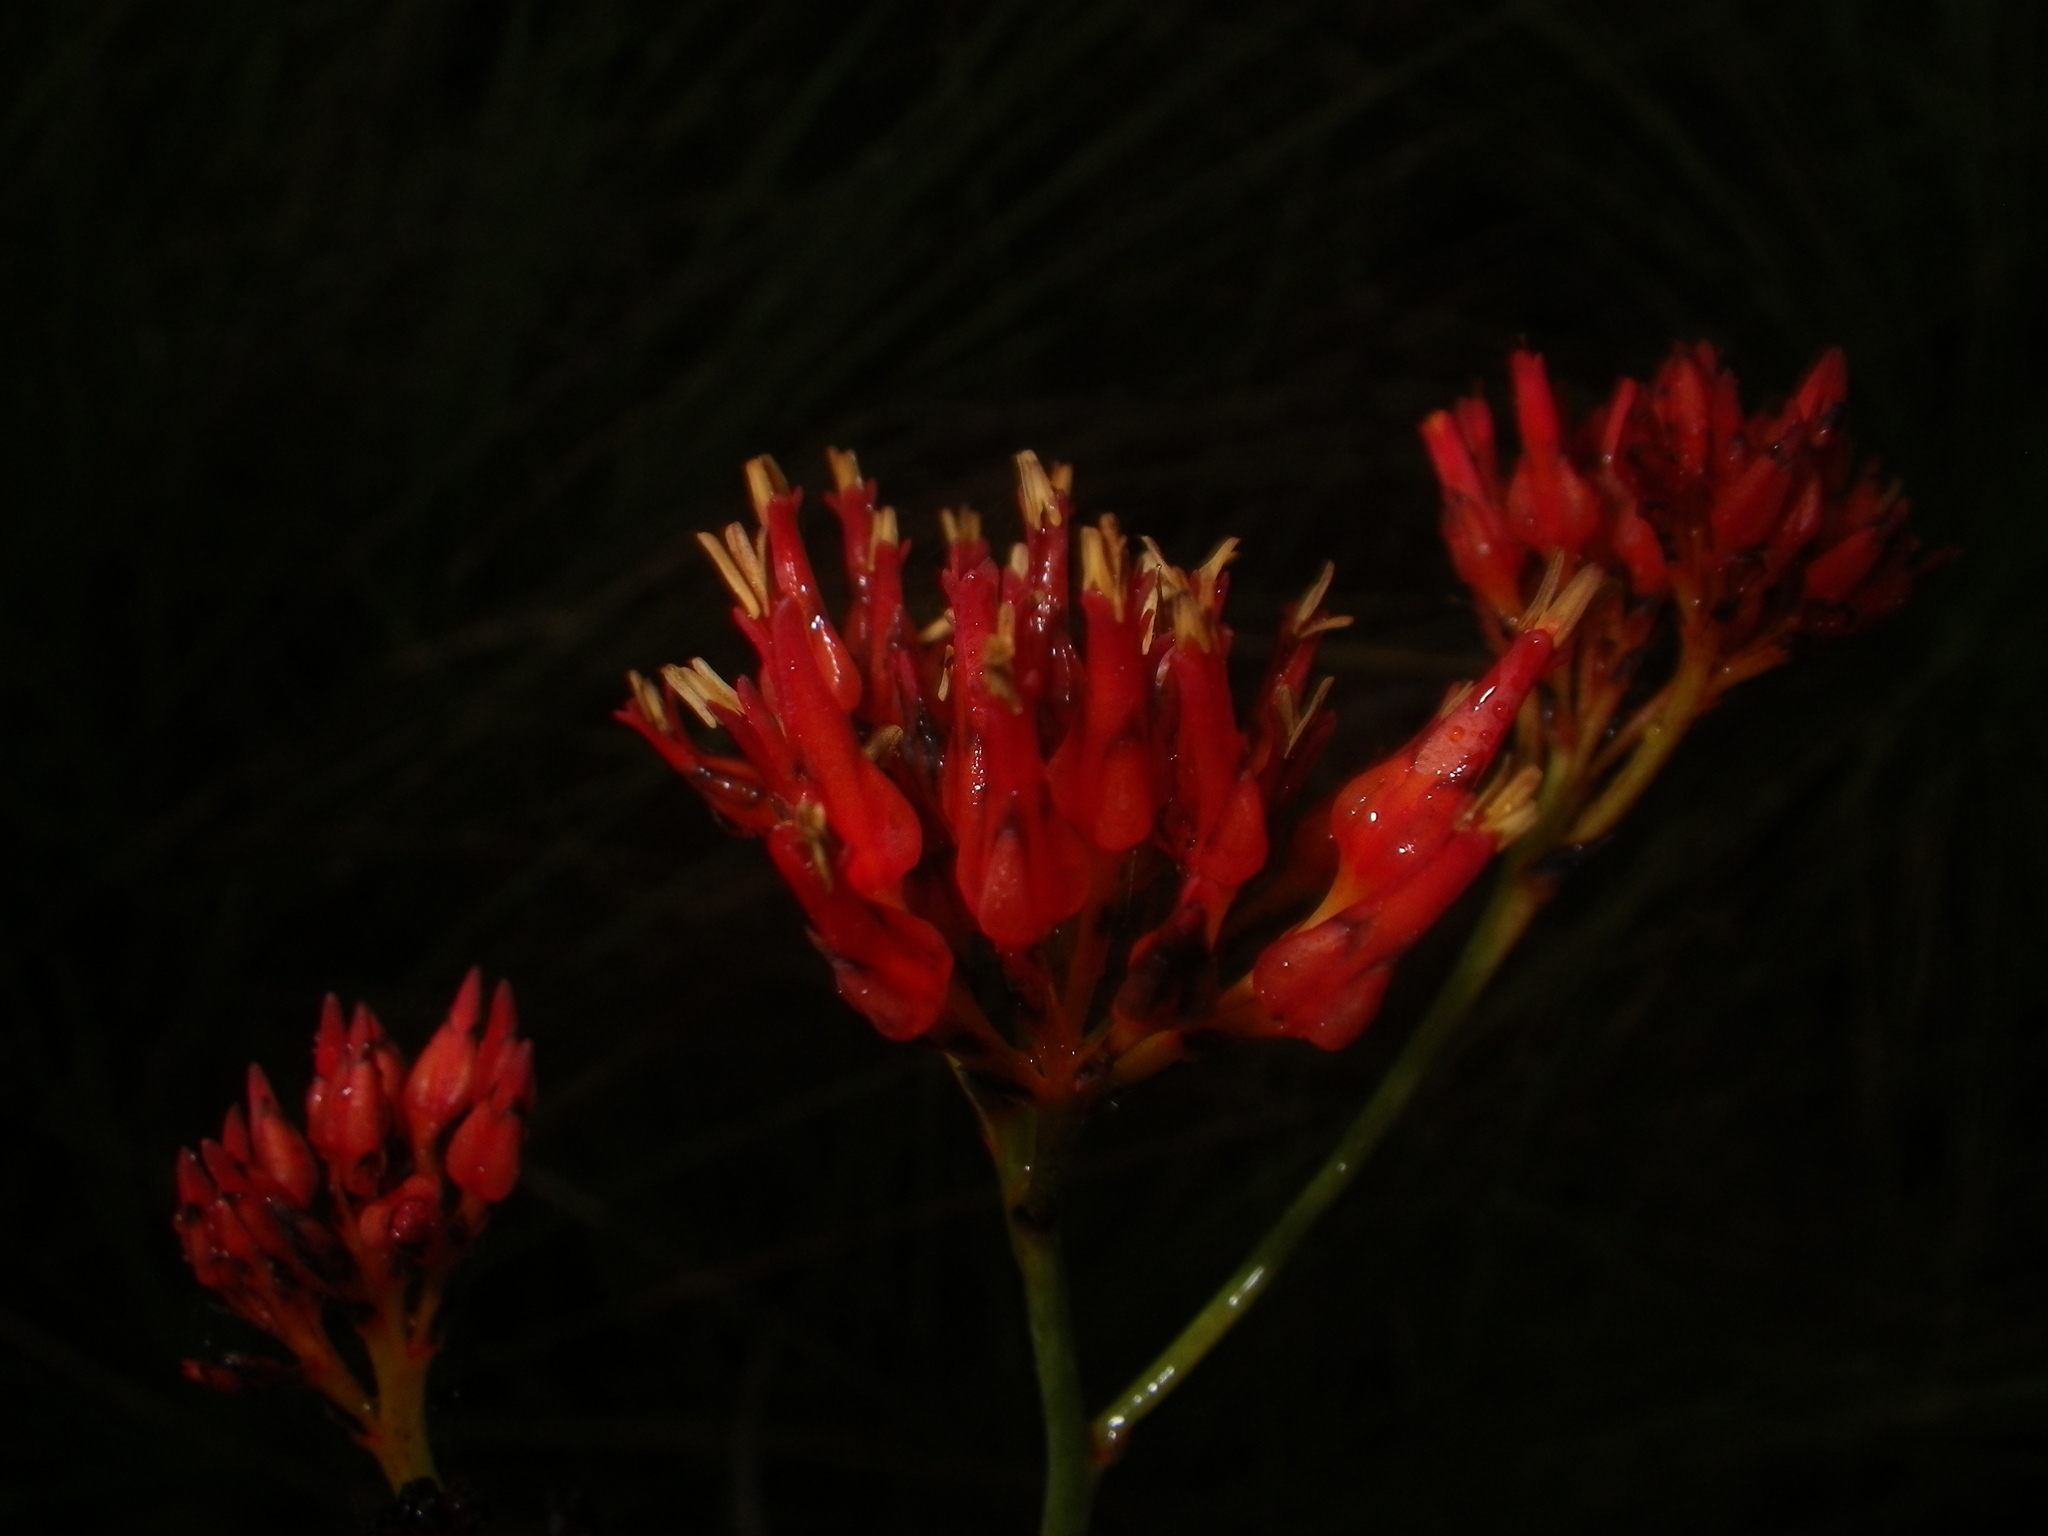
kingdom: Plantae
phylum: Tracheophyta
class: Liliopsida
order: Commelinales
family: Haemodoraceae
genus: Haemodorum
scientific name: Haemodorum coccineum
